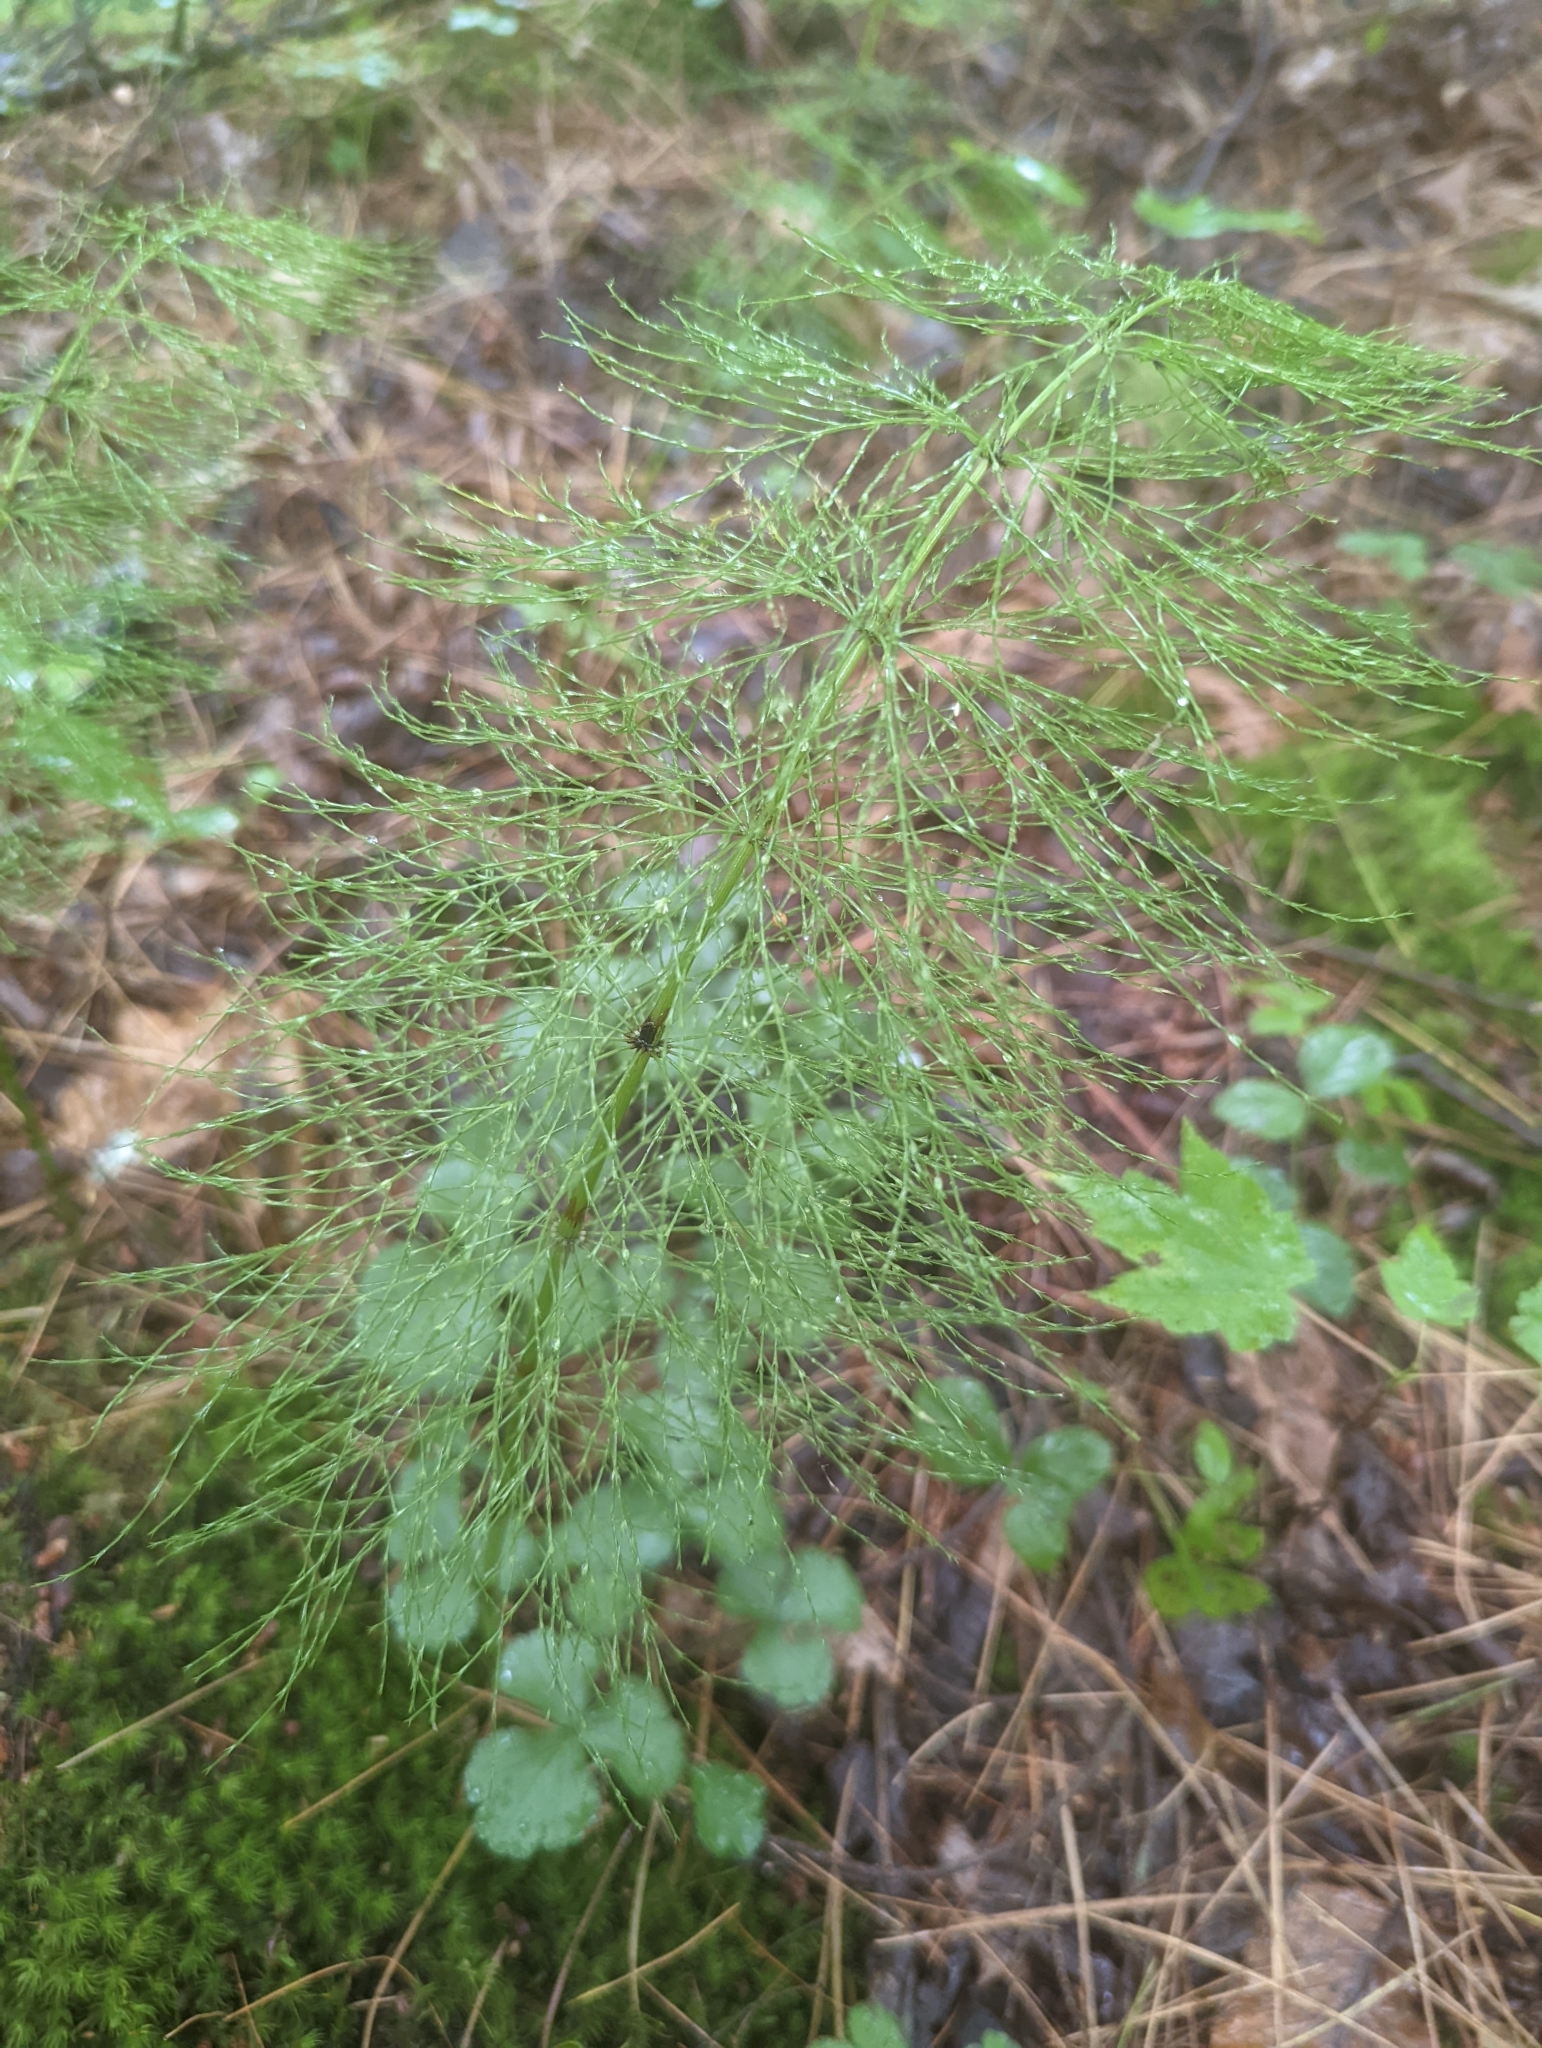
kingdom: Plantae
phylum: Tracheophyta
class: Polypodiopsida
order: Equisetales
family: Equisetaceae
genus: Equisetum
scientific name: Equisetum sylvaticum
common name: Wood horsetail
